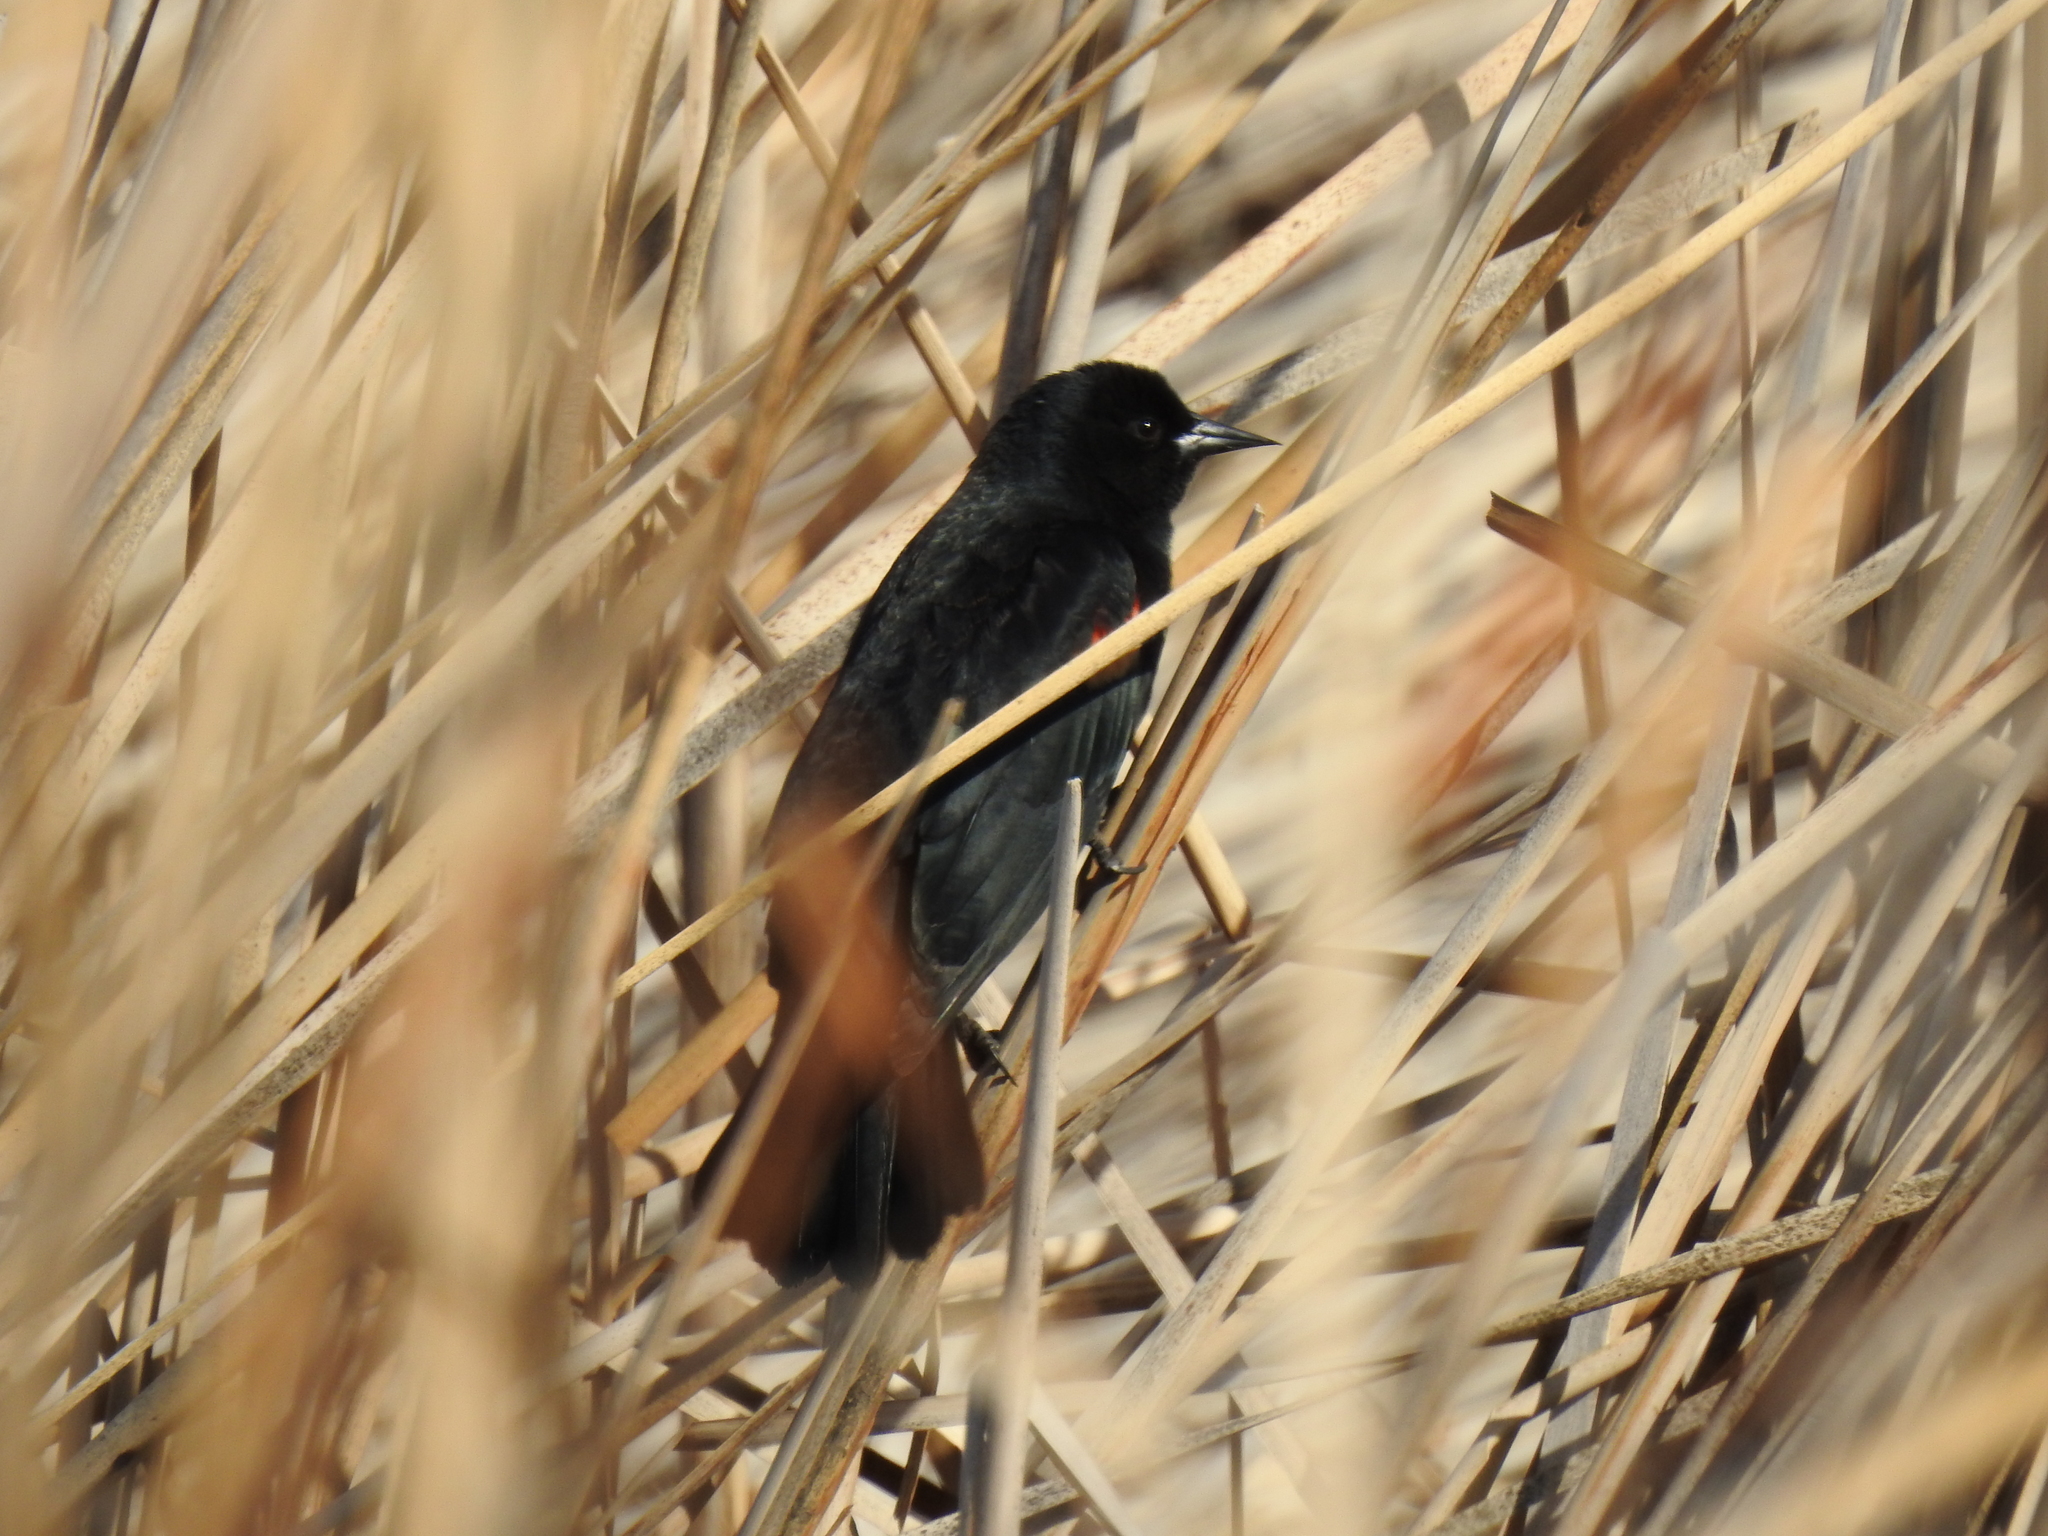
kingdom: Animalia
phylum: Chordata
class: Aves
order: Passeriformes
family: Icteridae
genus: Agelaius
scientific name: Agelaius phoeniceus
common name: Red-winged blackbird
